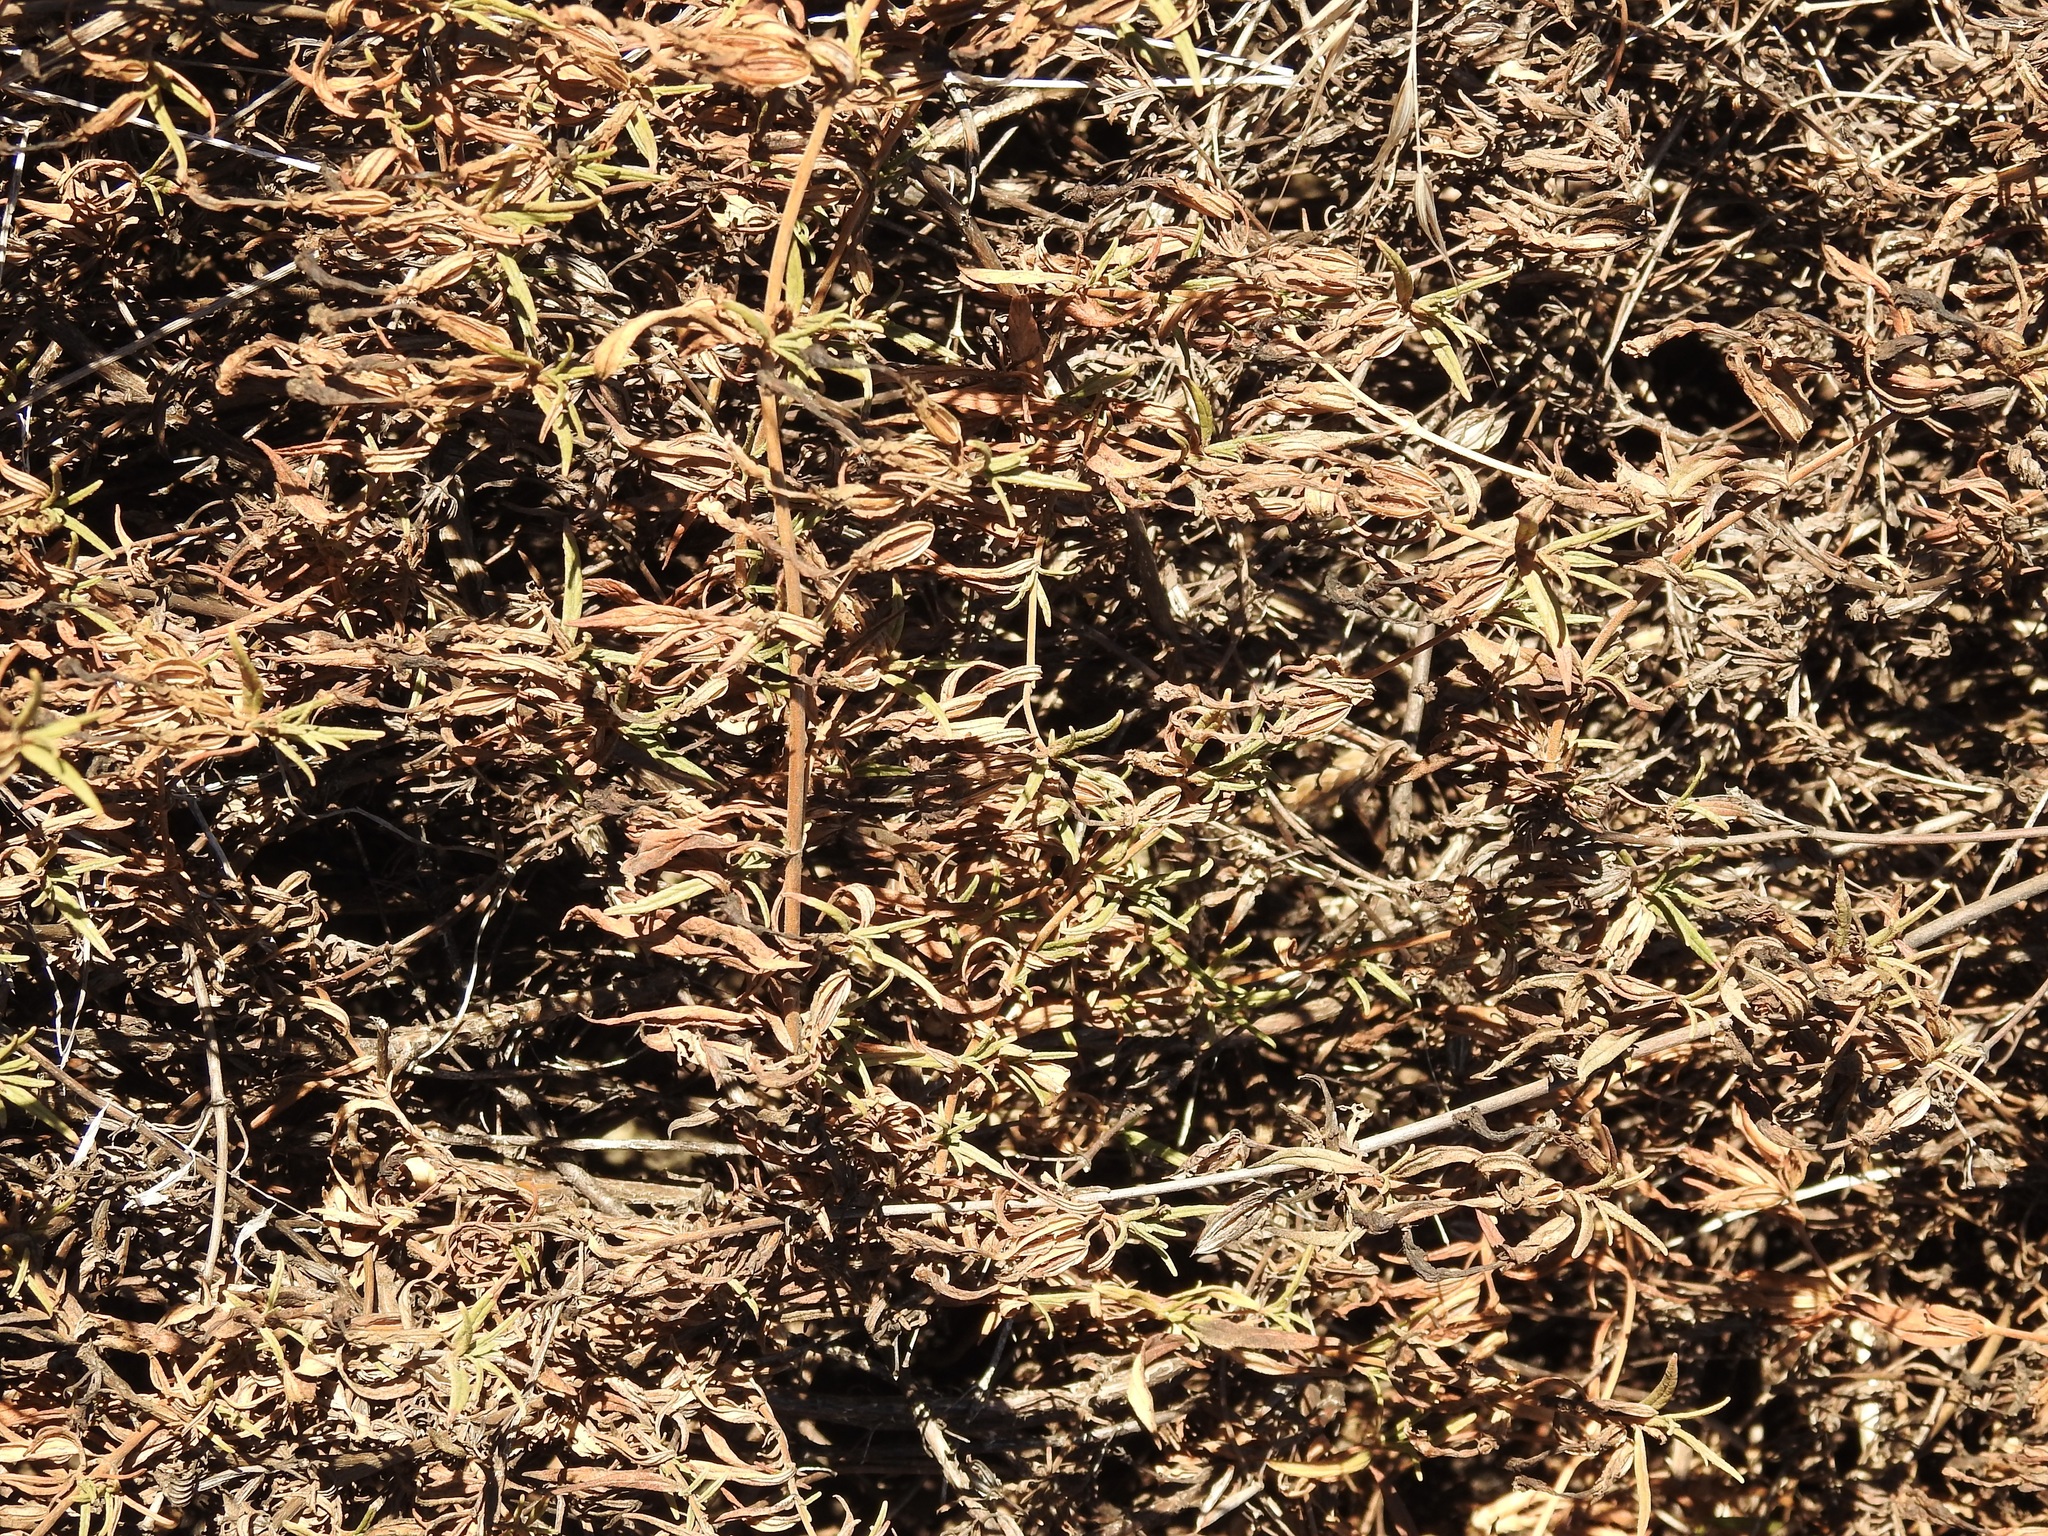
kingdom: Plantae
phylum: Tracheophyta
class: Magnoliopsida
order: Lamiales
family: Phrymaceae
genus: Diplacus
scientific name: Diplacus aurantiacus
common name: Bush monkey-flower
